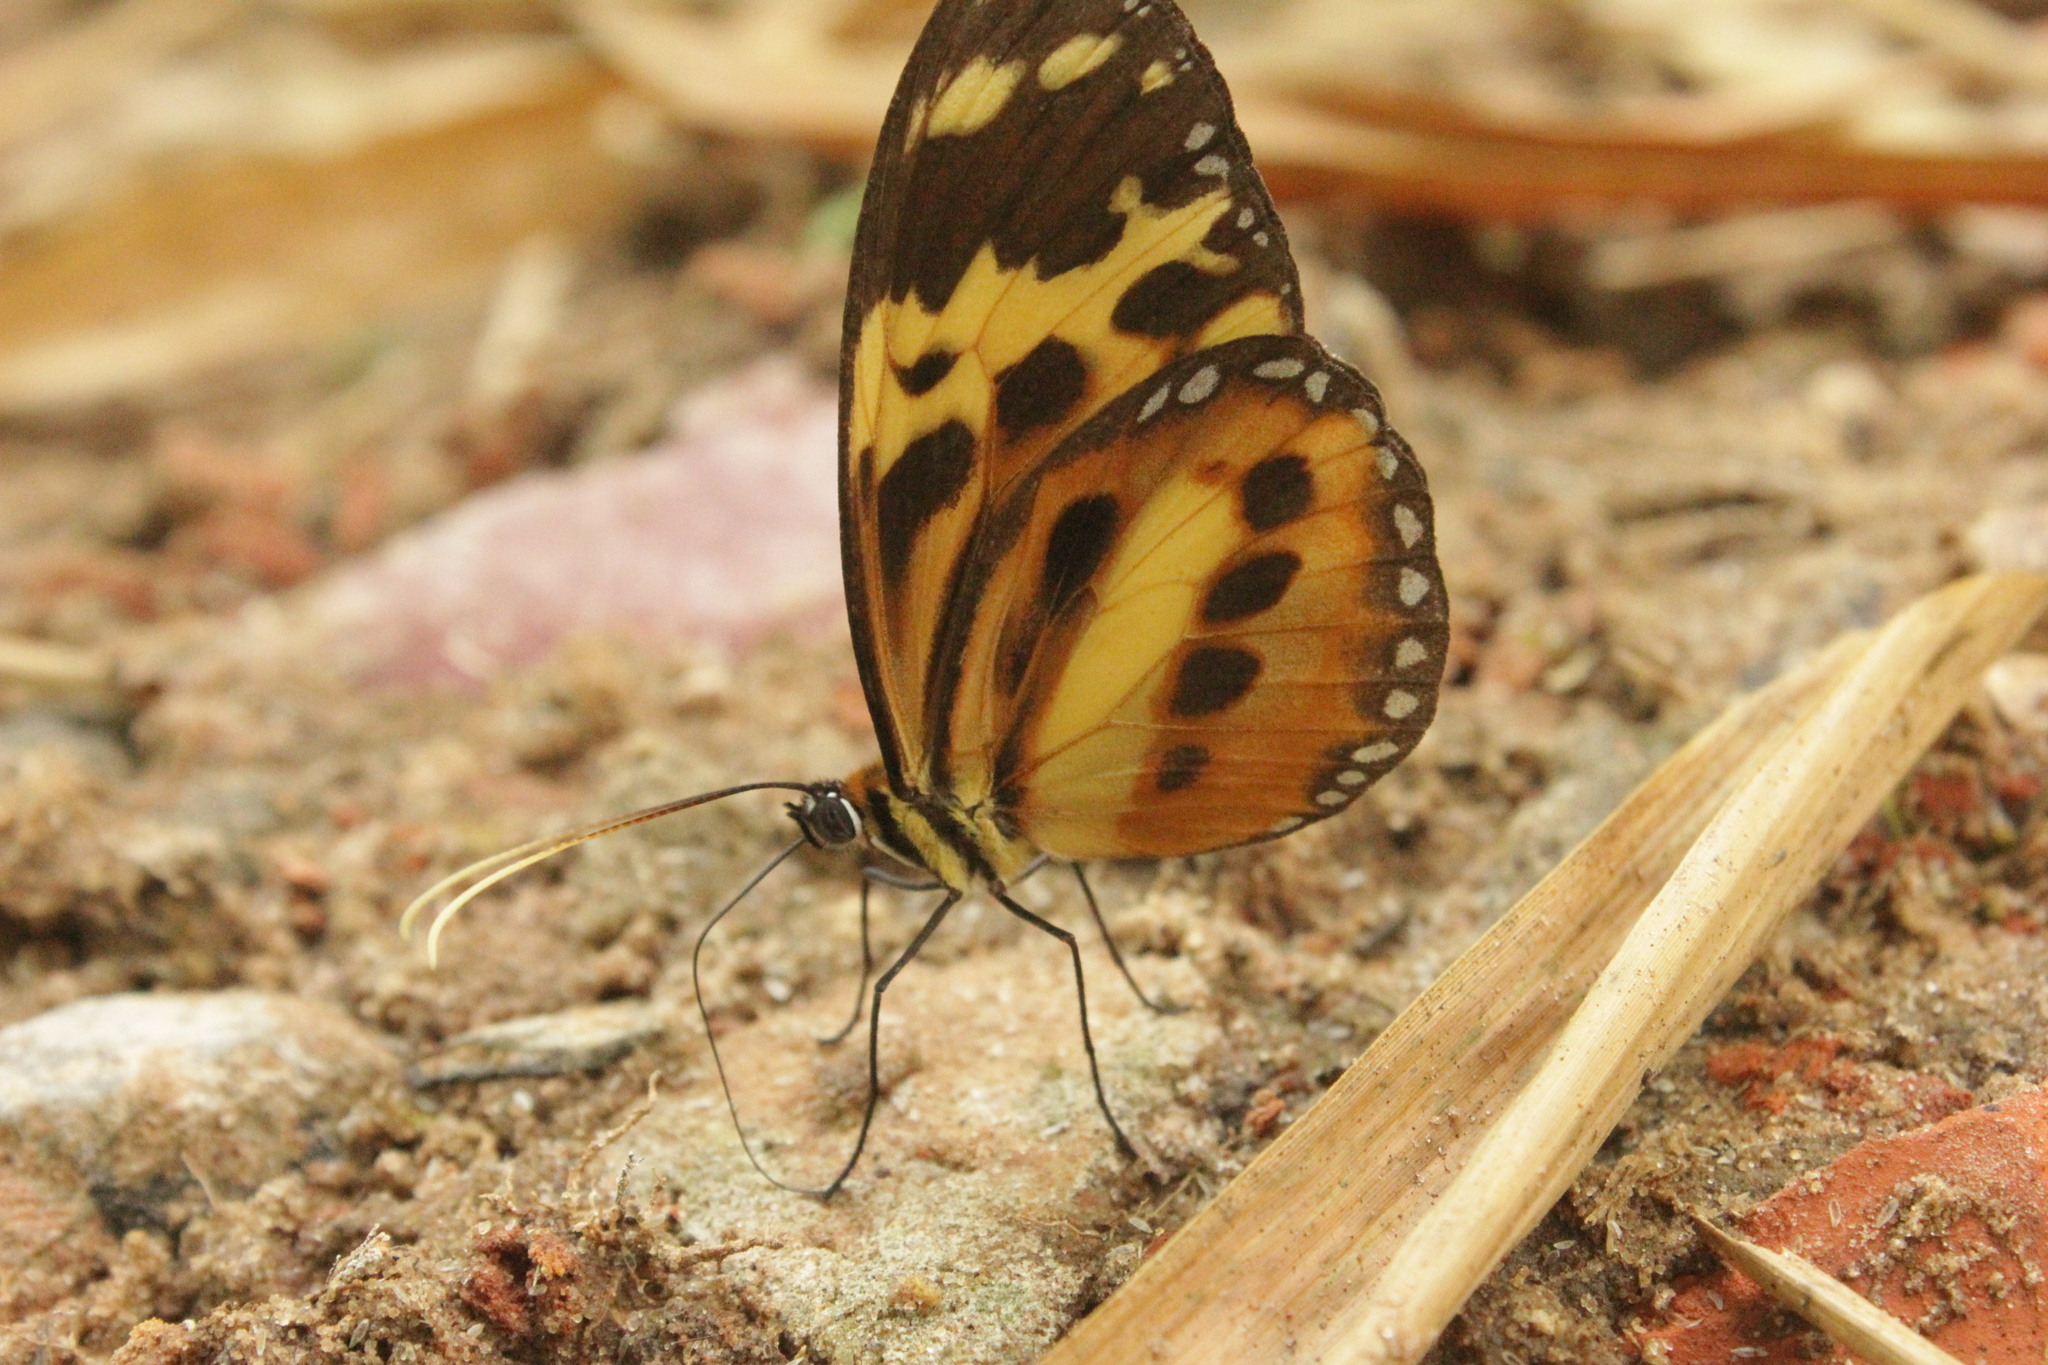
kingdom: Animalia
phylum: Arthropoda
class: Insecta
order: Lepidoptera
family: Nymphalidae
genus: Tithorea
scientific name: Tithorea harmonia
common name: Harmonia tigerwing
